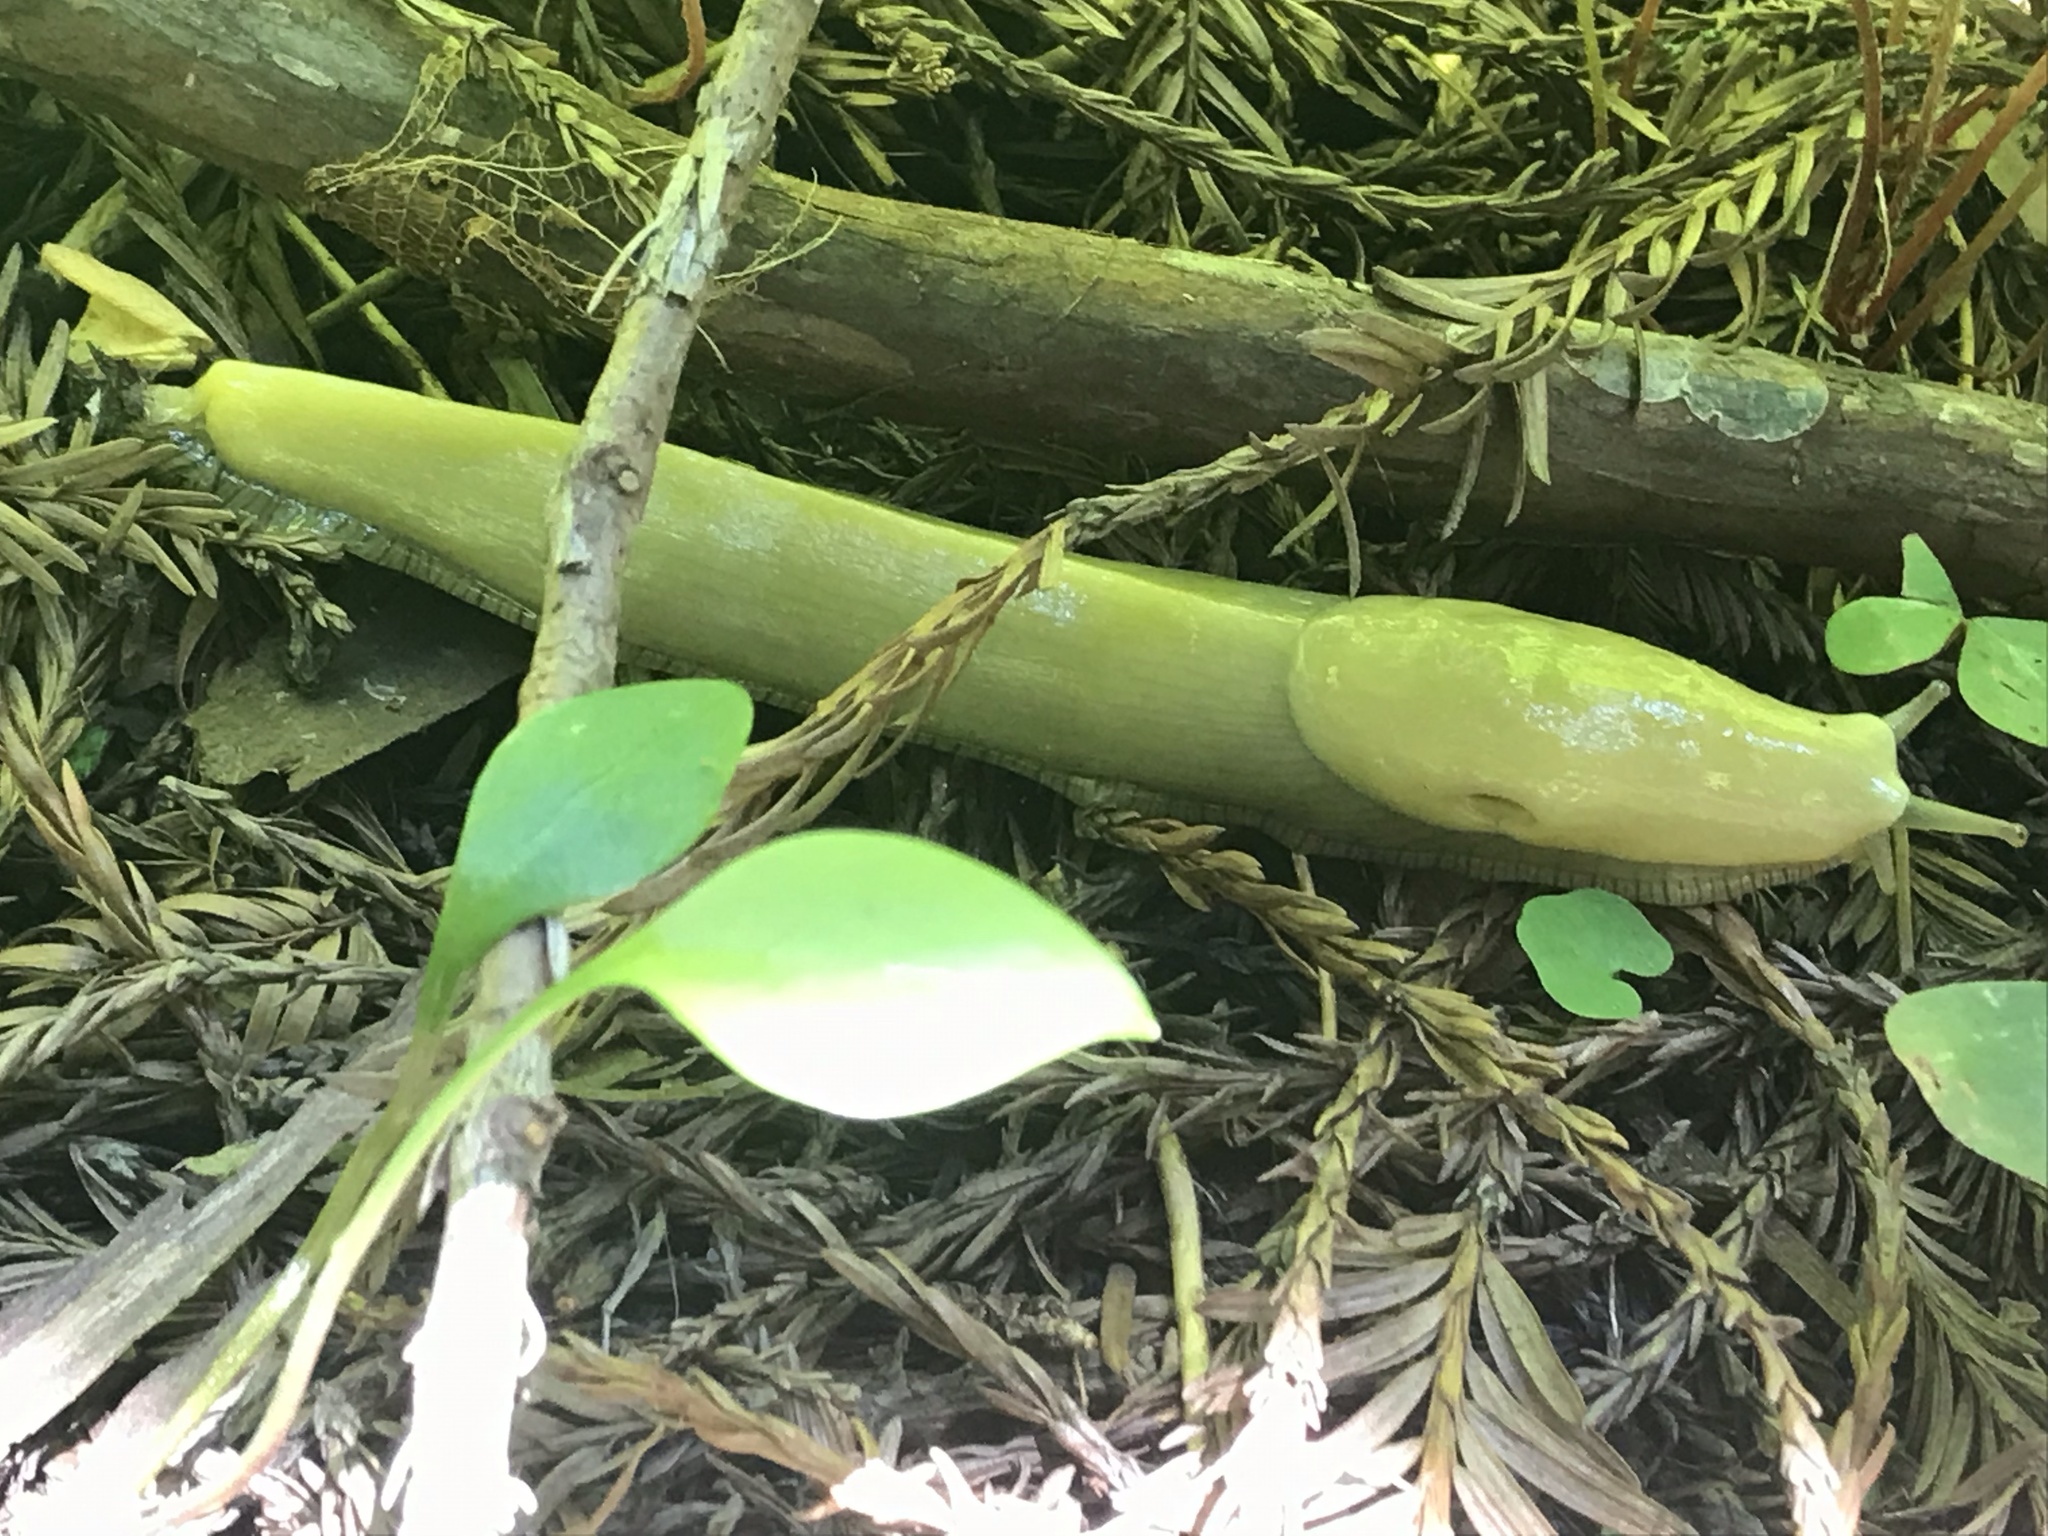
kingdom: Animalia
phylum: Mollusca
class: Gastropoda
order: Stylommatophora
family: Ariolimacidae
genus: Ariolimax
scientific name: Ariolimax columbianus
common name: Pacific banana slug
